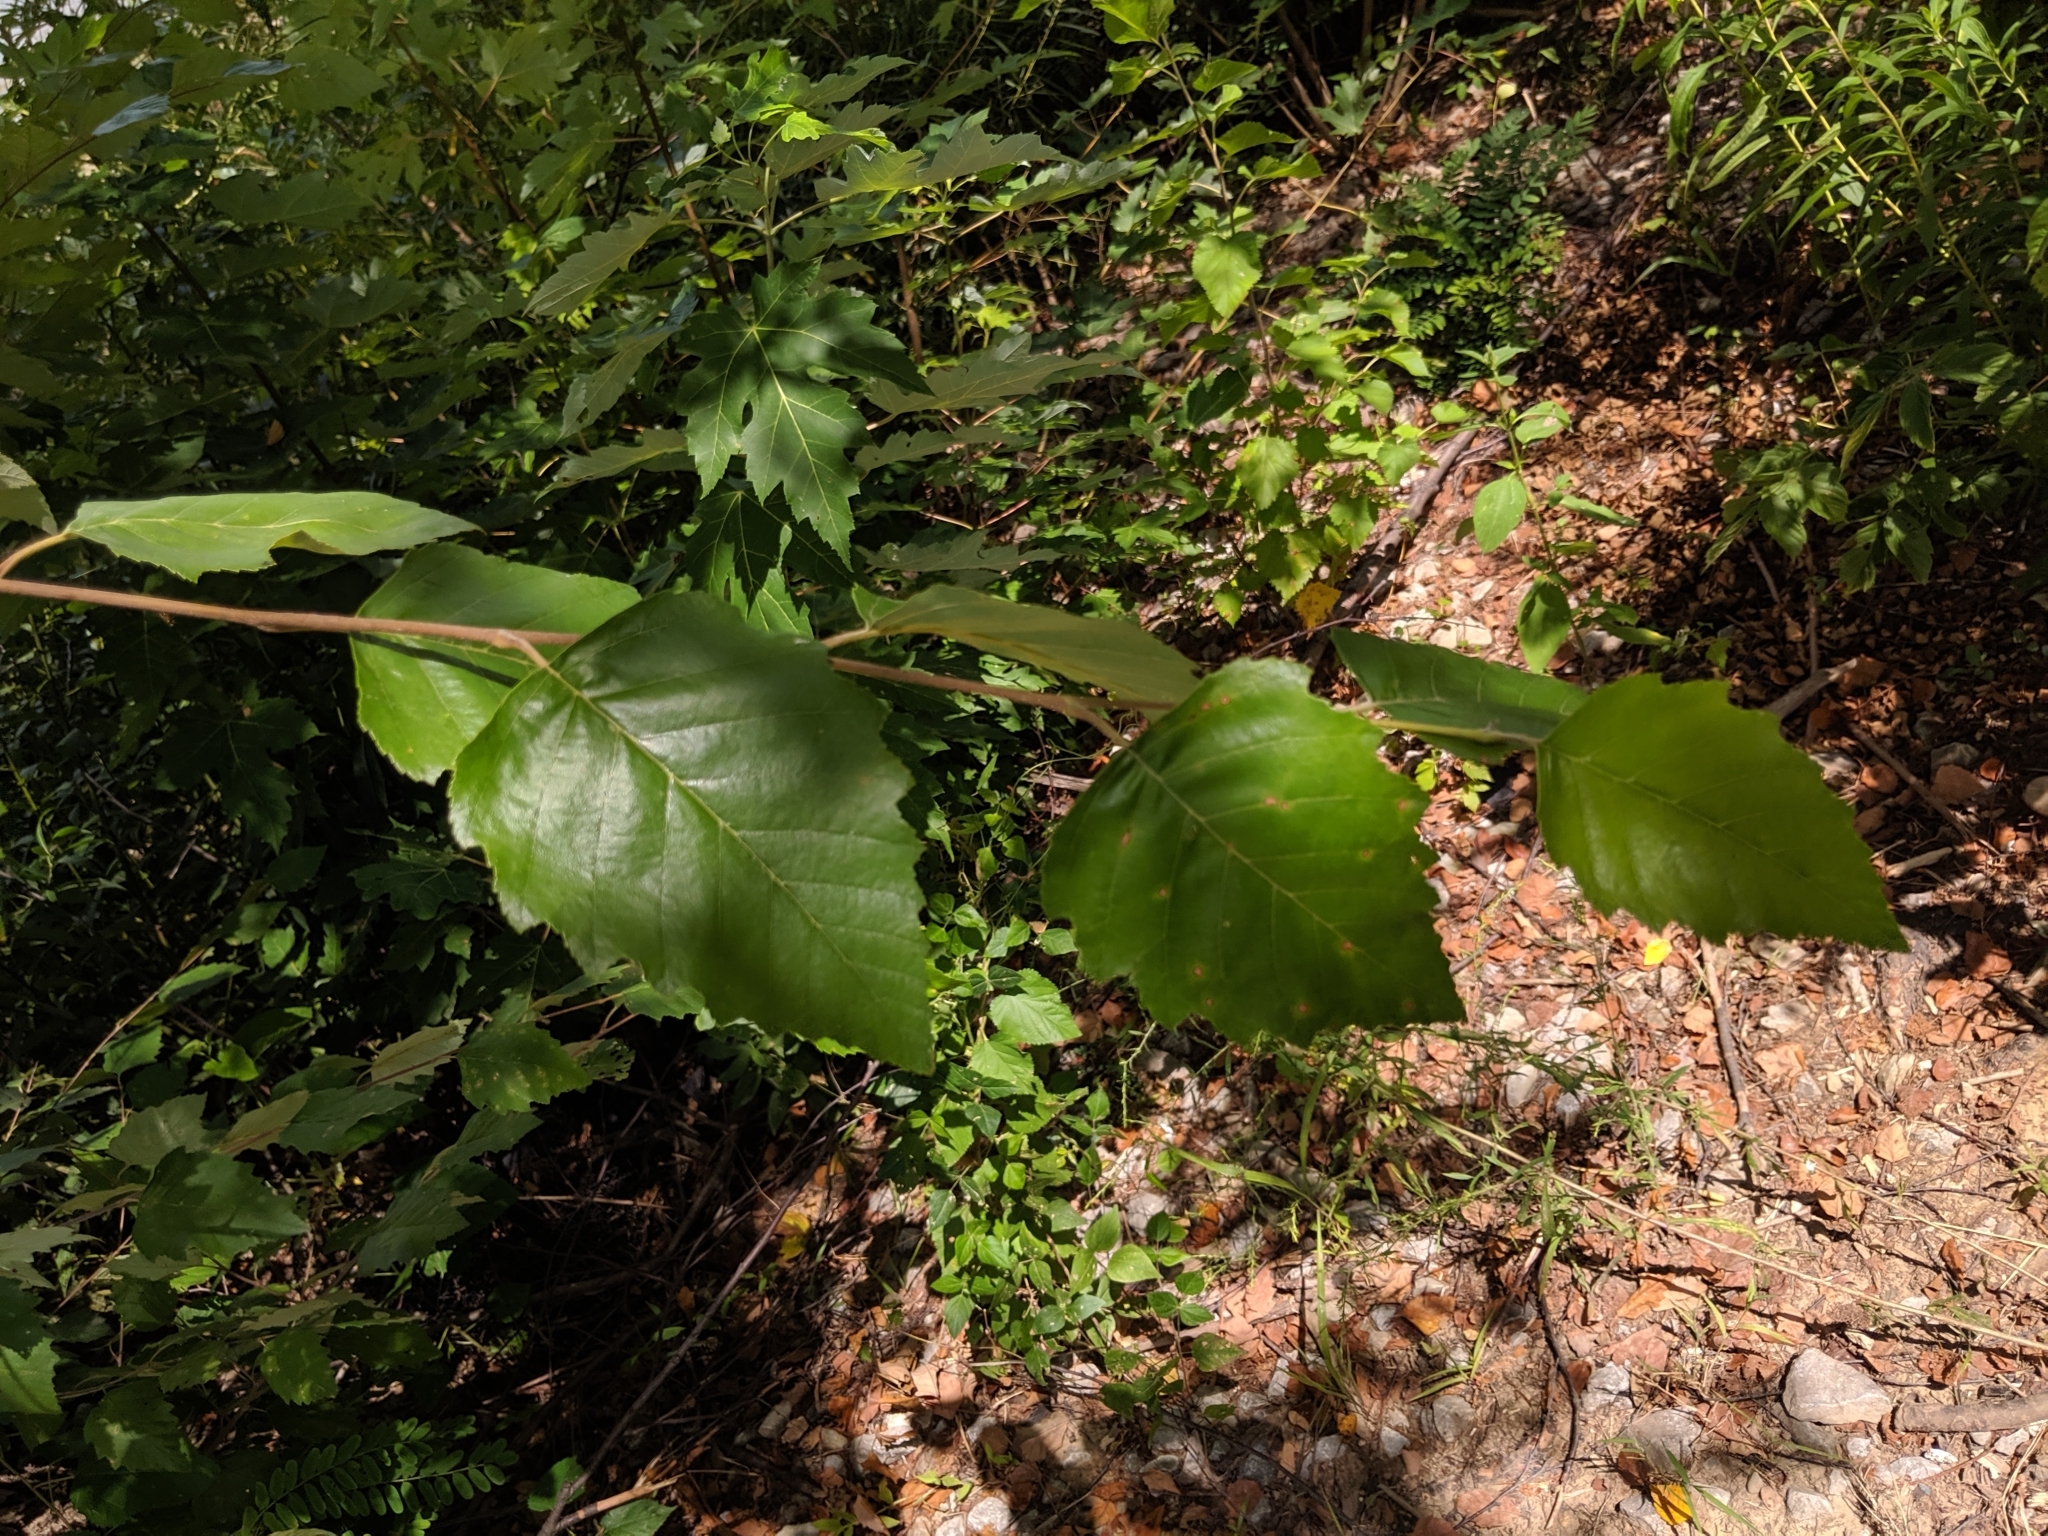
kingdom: Plantae
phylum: Tracheophyta
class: Magnoliopsida
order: Fagales
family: Betulaceae
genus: Betula
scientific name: Betula nigra
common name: Black birch
